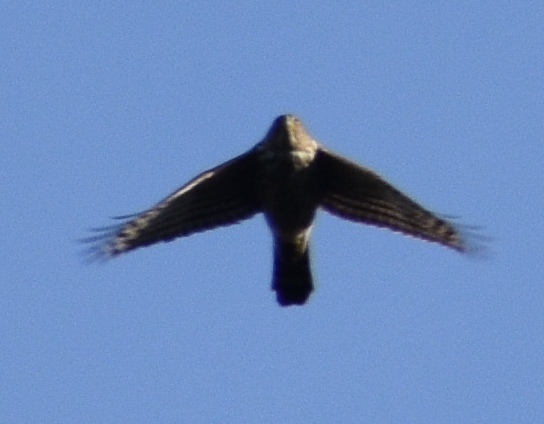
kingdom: Animalia
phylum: Chordata
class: Aves
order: Accipitriformes
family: Accipitridae
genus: Accipiter
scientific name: Accipiter cooperii
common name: Cooper's hawk
